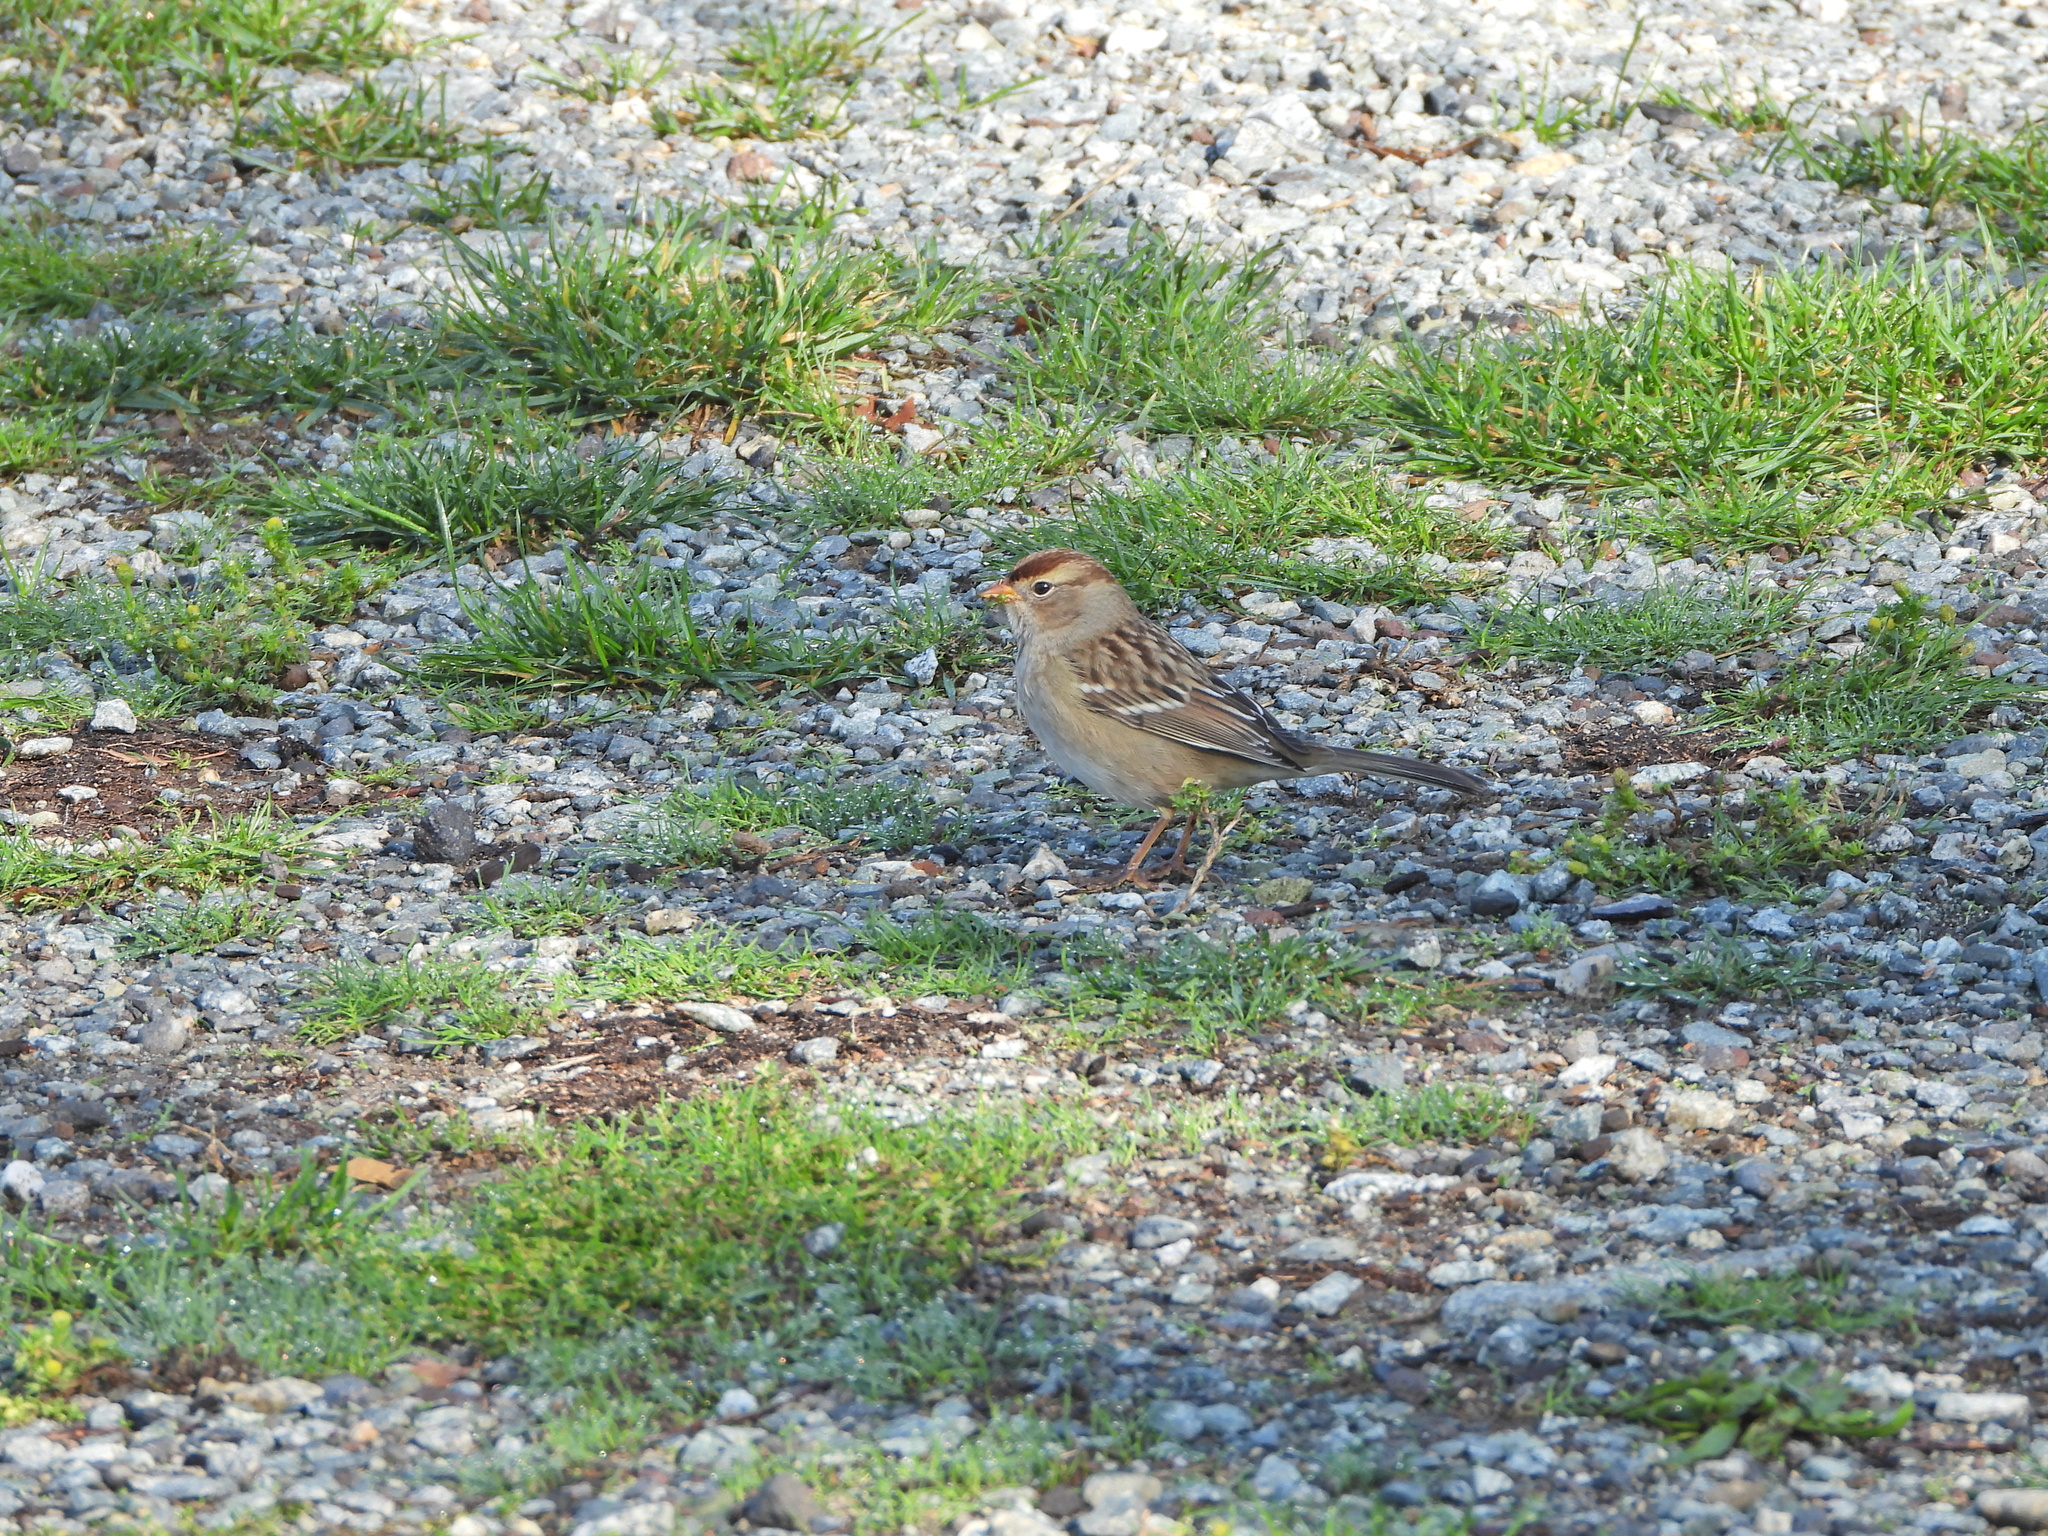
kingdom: Animalia
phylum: Chordata
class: Aves
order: Passeriformes
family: Passerellidae
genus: Zonotrichia
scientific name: Zonotrichia leucophrys
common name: White-crowned sparrow
